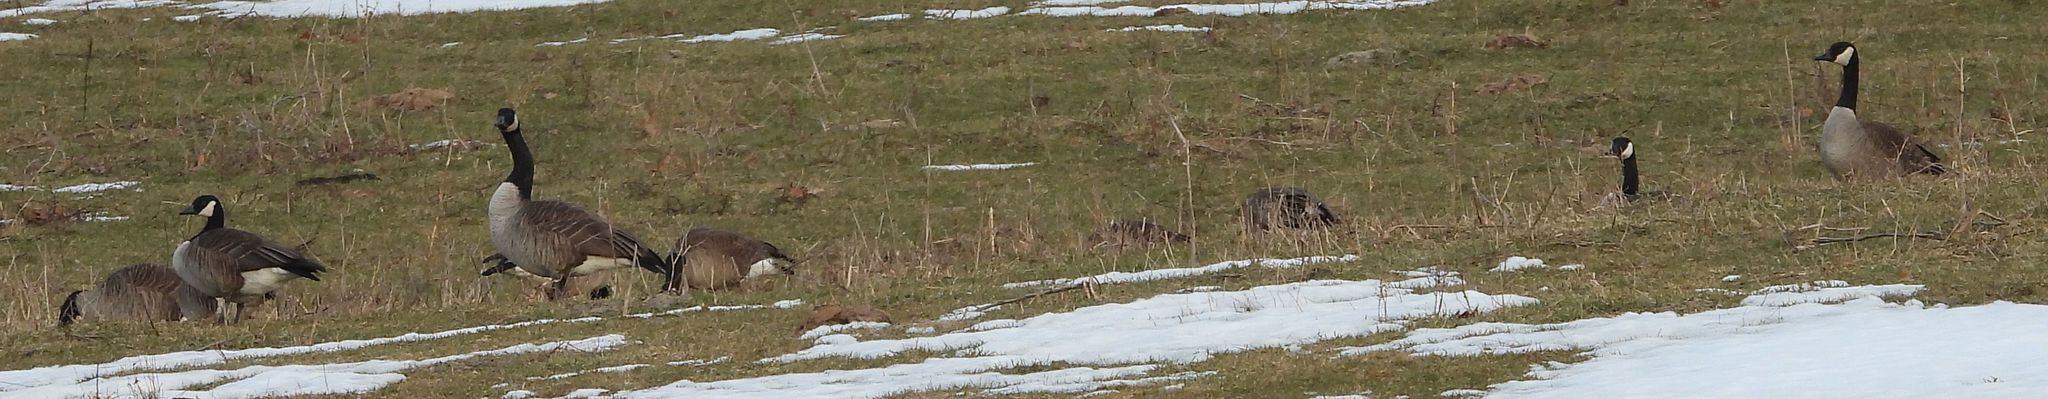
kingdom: Animalia
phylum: Chordata
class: Aves
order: Anseriformes
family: Anatidae
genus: Branta
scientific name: Branta canadensis
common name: Canada goose
